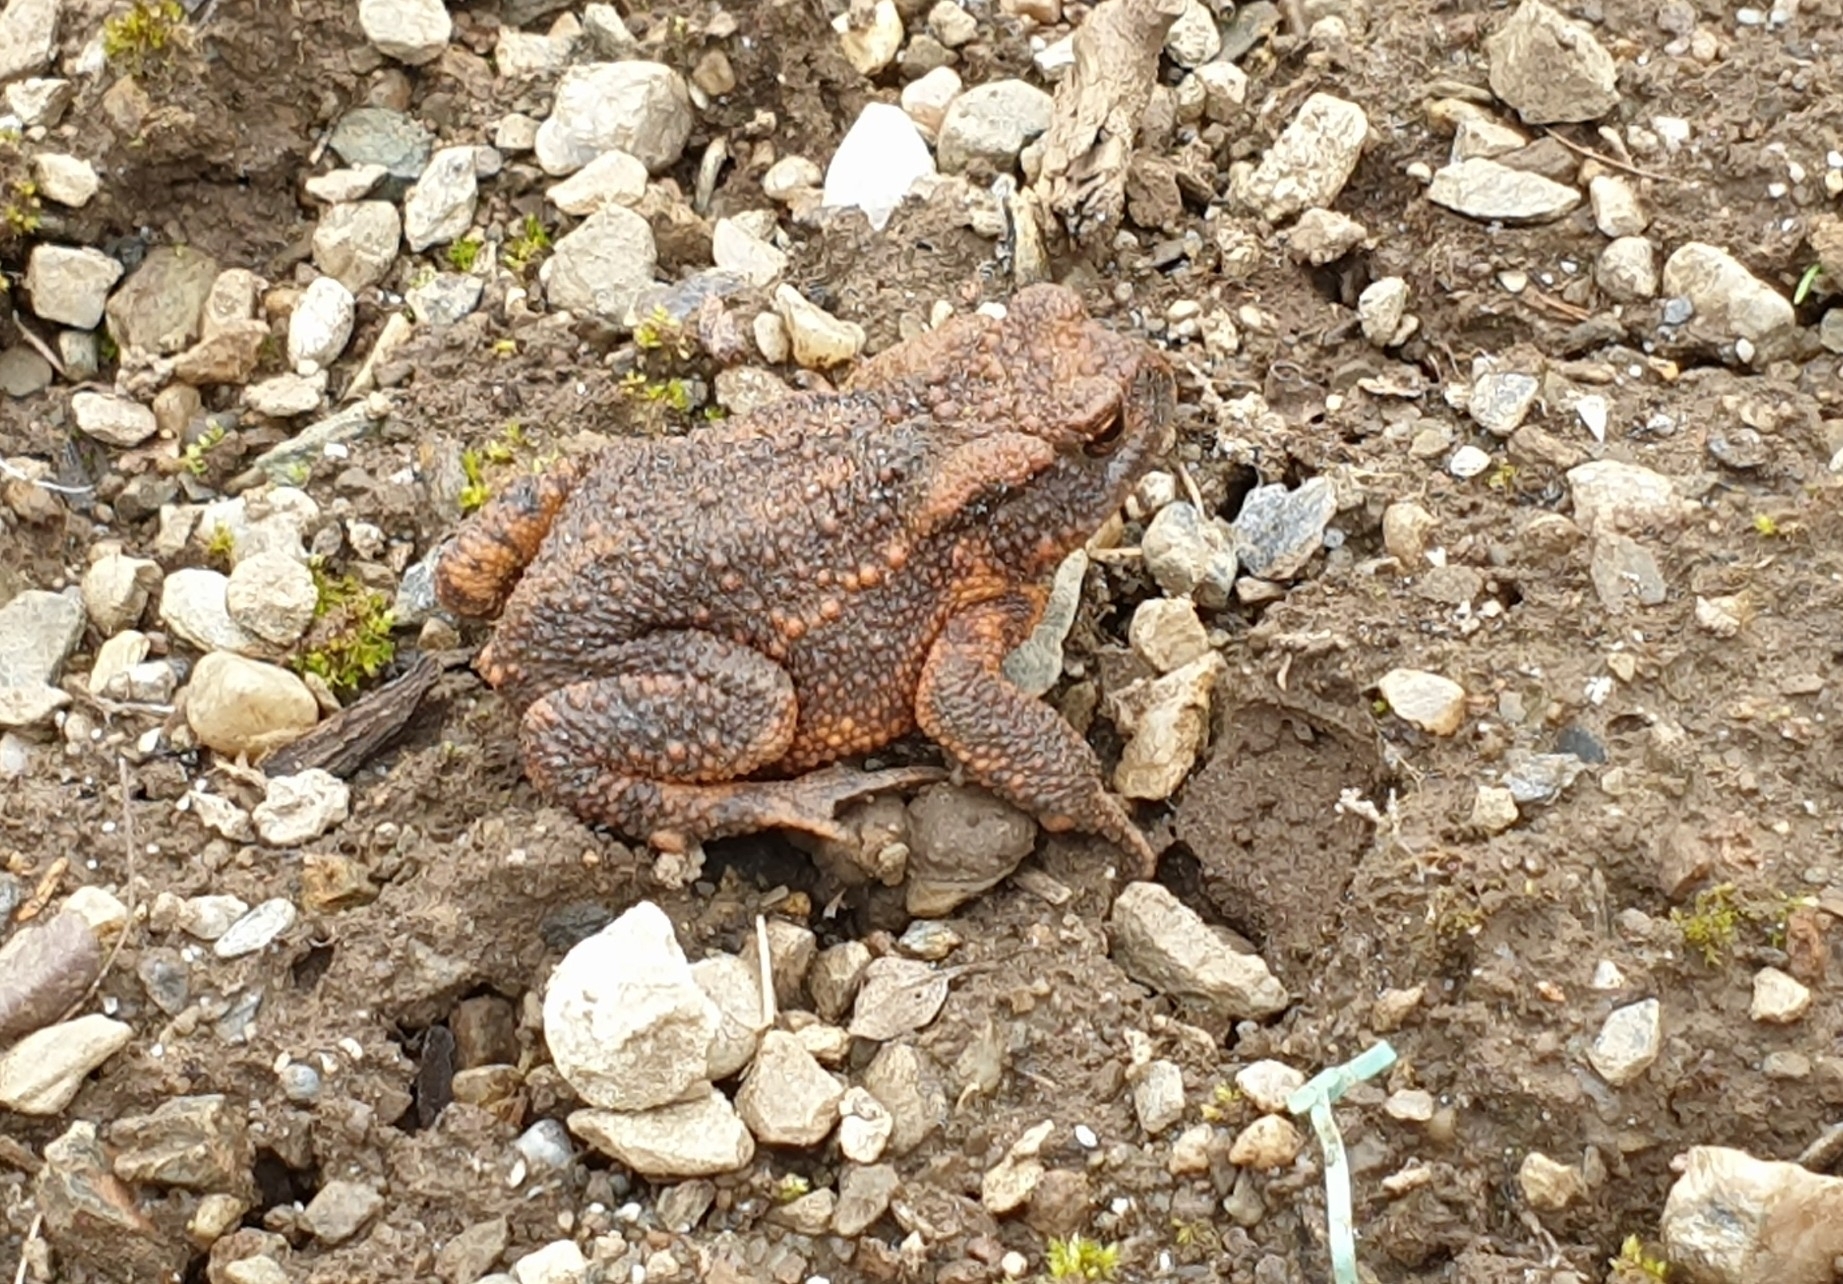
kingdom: Animalia
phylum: Chordata
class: Amphibia
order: Anura
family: Bufonidae
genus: Bufo
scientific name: Bufo bufo
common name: Common toad
